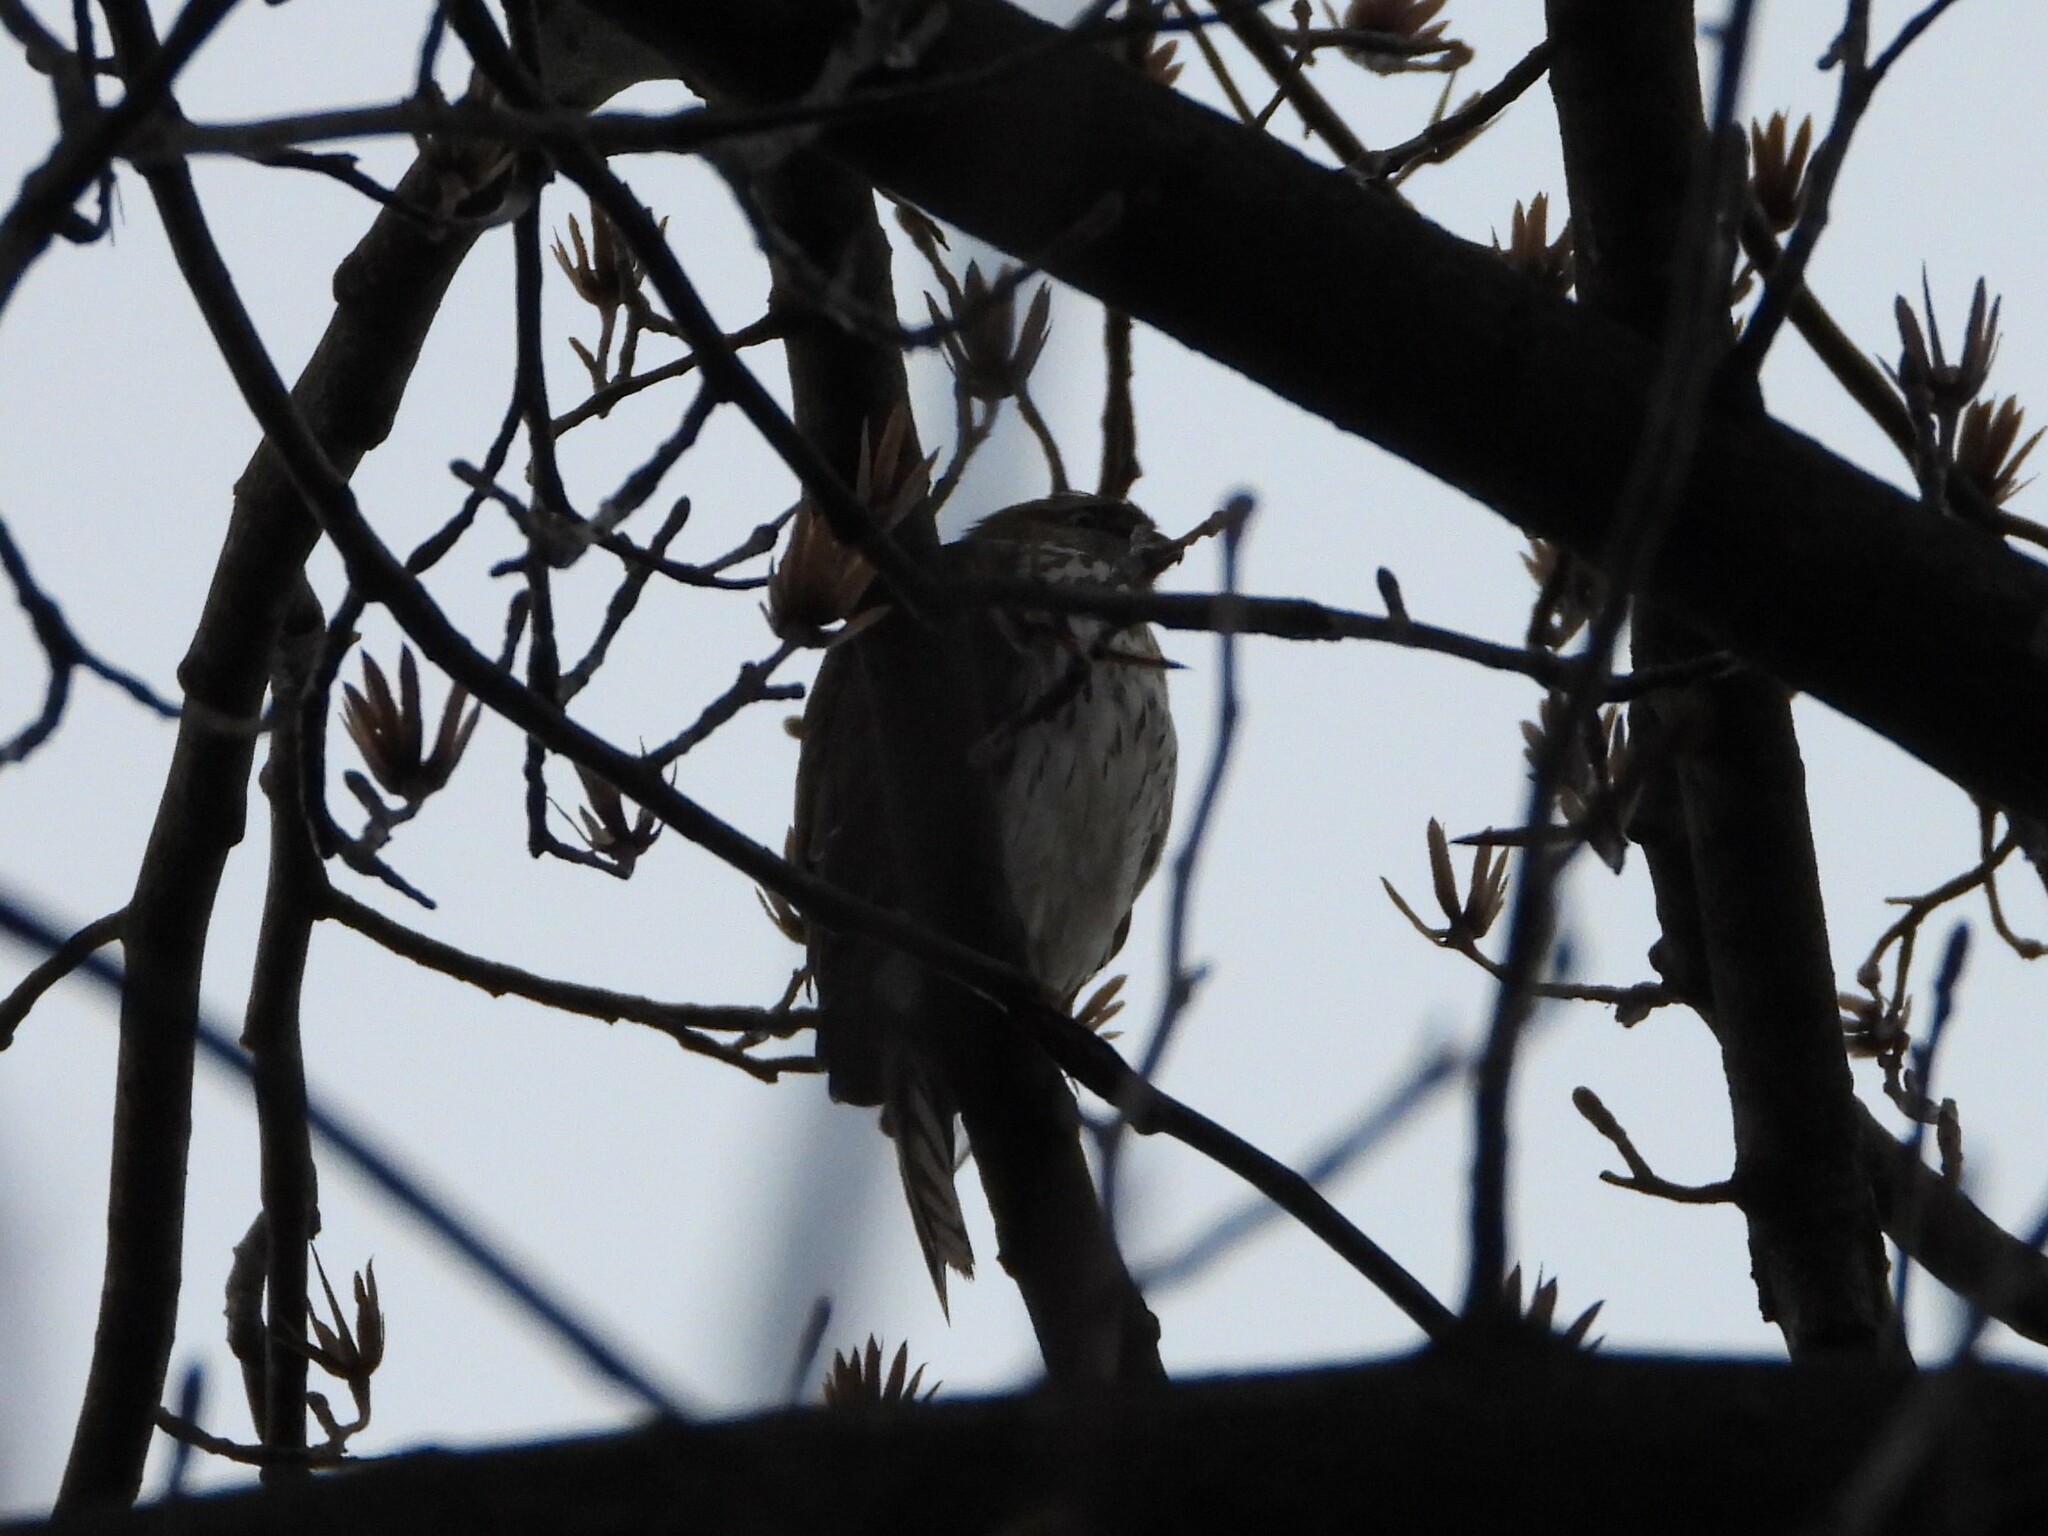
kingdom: Animalia
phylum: Chordata
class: Aves
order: Accipitriformes
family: Accipitridae
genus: Accipiter
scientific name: Accipiter cooperii
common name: Cooper's hawk
